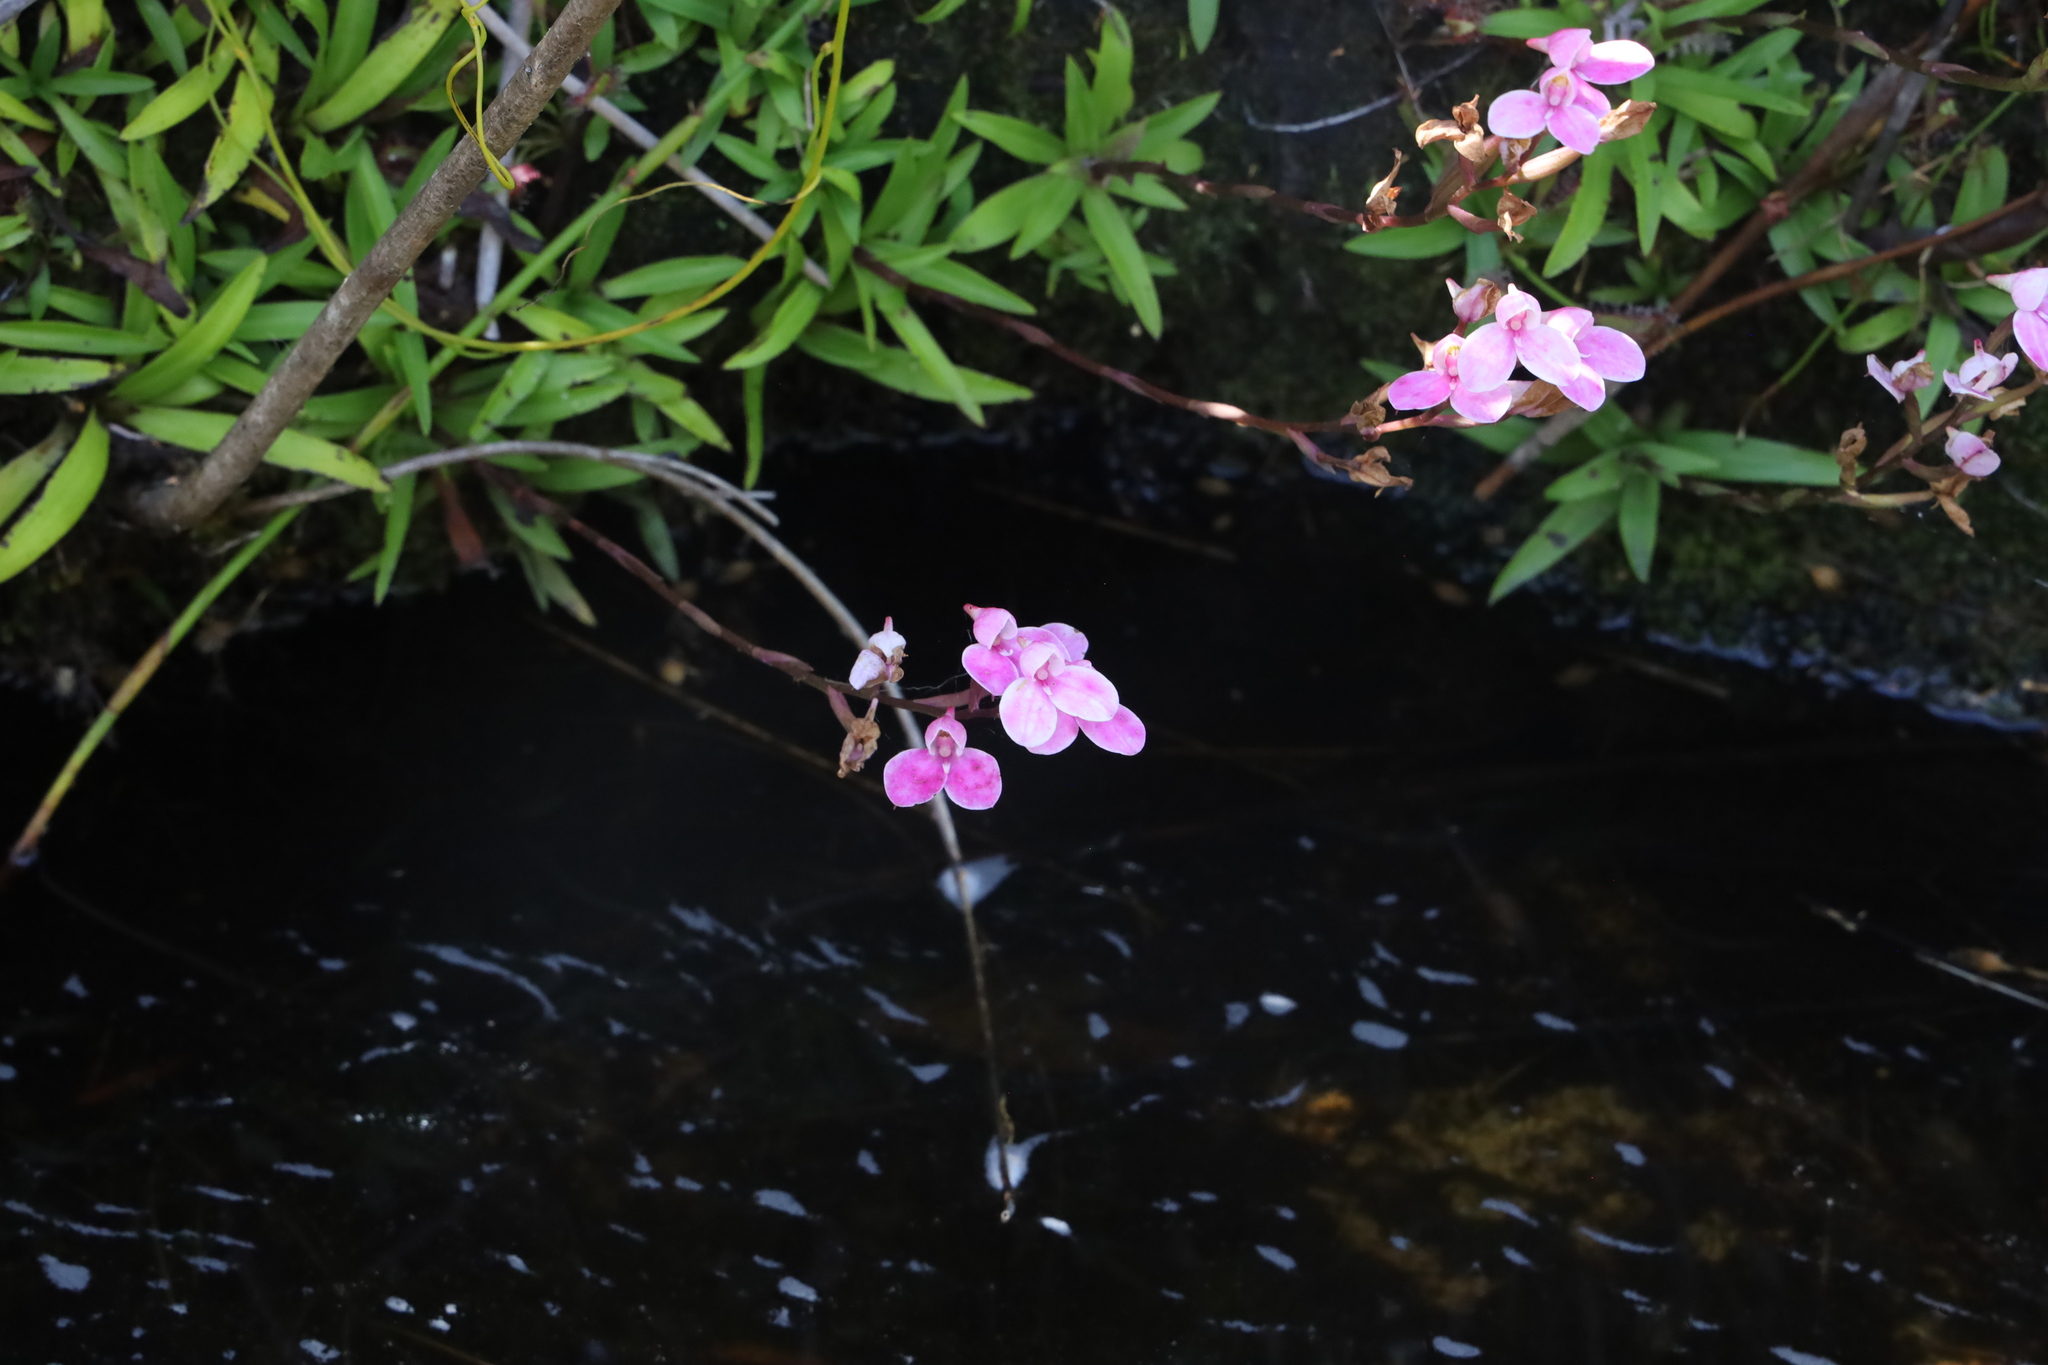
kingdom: Plantae
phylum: Tracheophyta
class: Liliopsida
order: Asparagales
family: Orchidaceae
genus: Disa
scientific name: Disa tripetaloides
